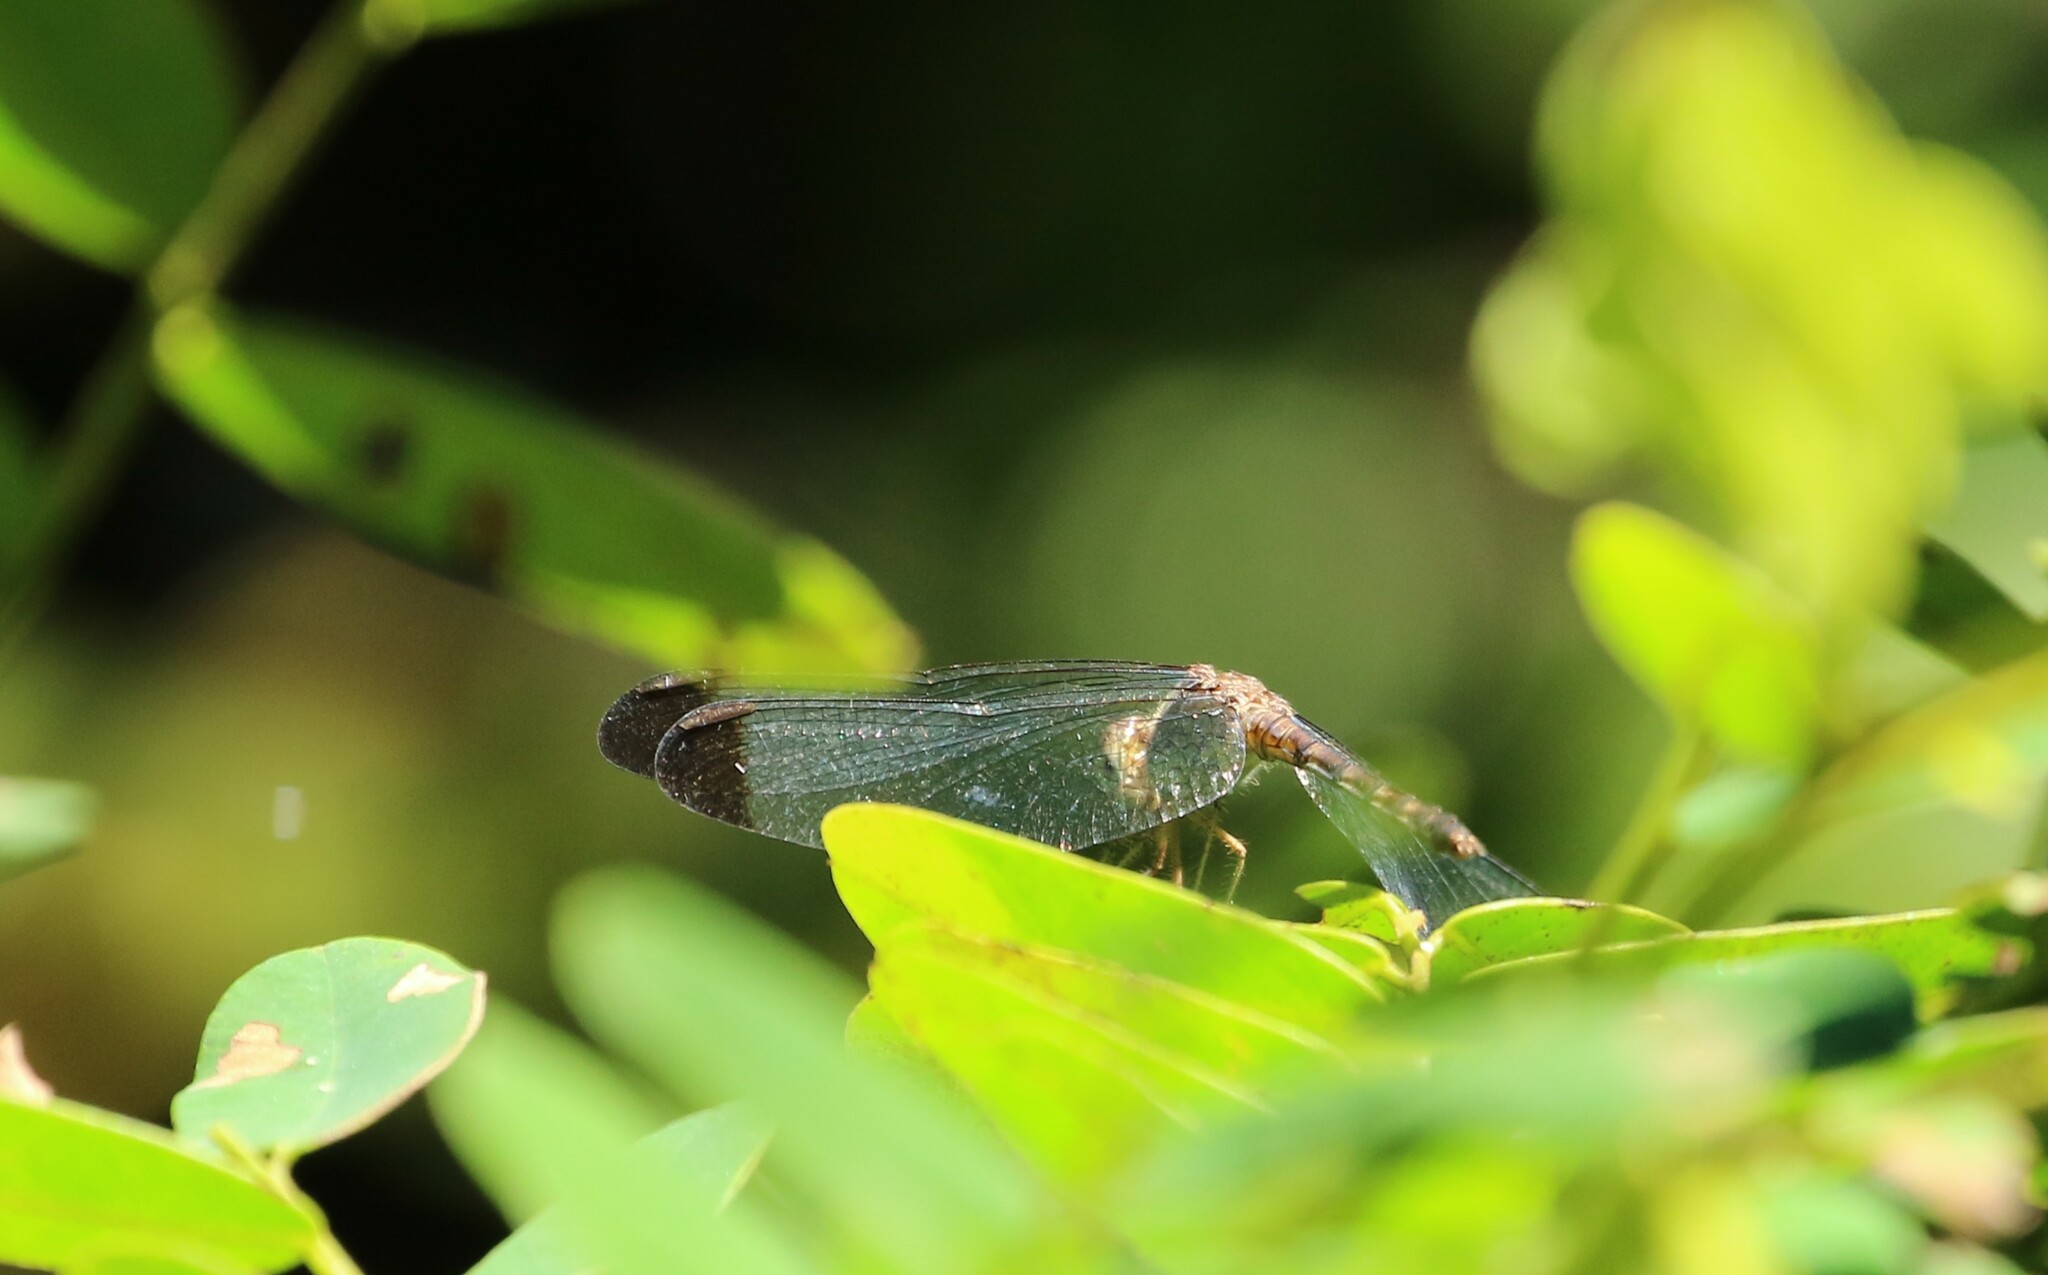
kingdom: Animalia
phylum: Arthropoda
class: Insecta
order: Odonata
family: Libellulidae
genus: Uracis
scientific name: Uracis imbuta
